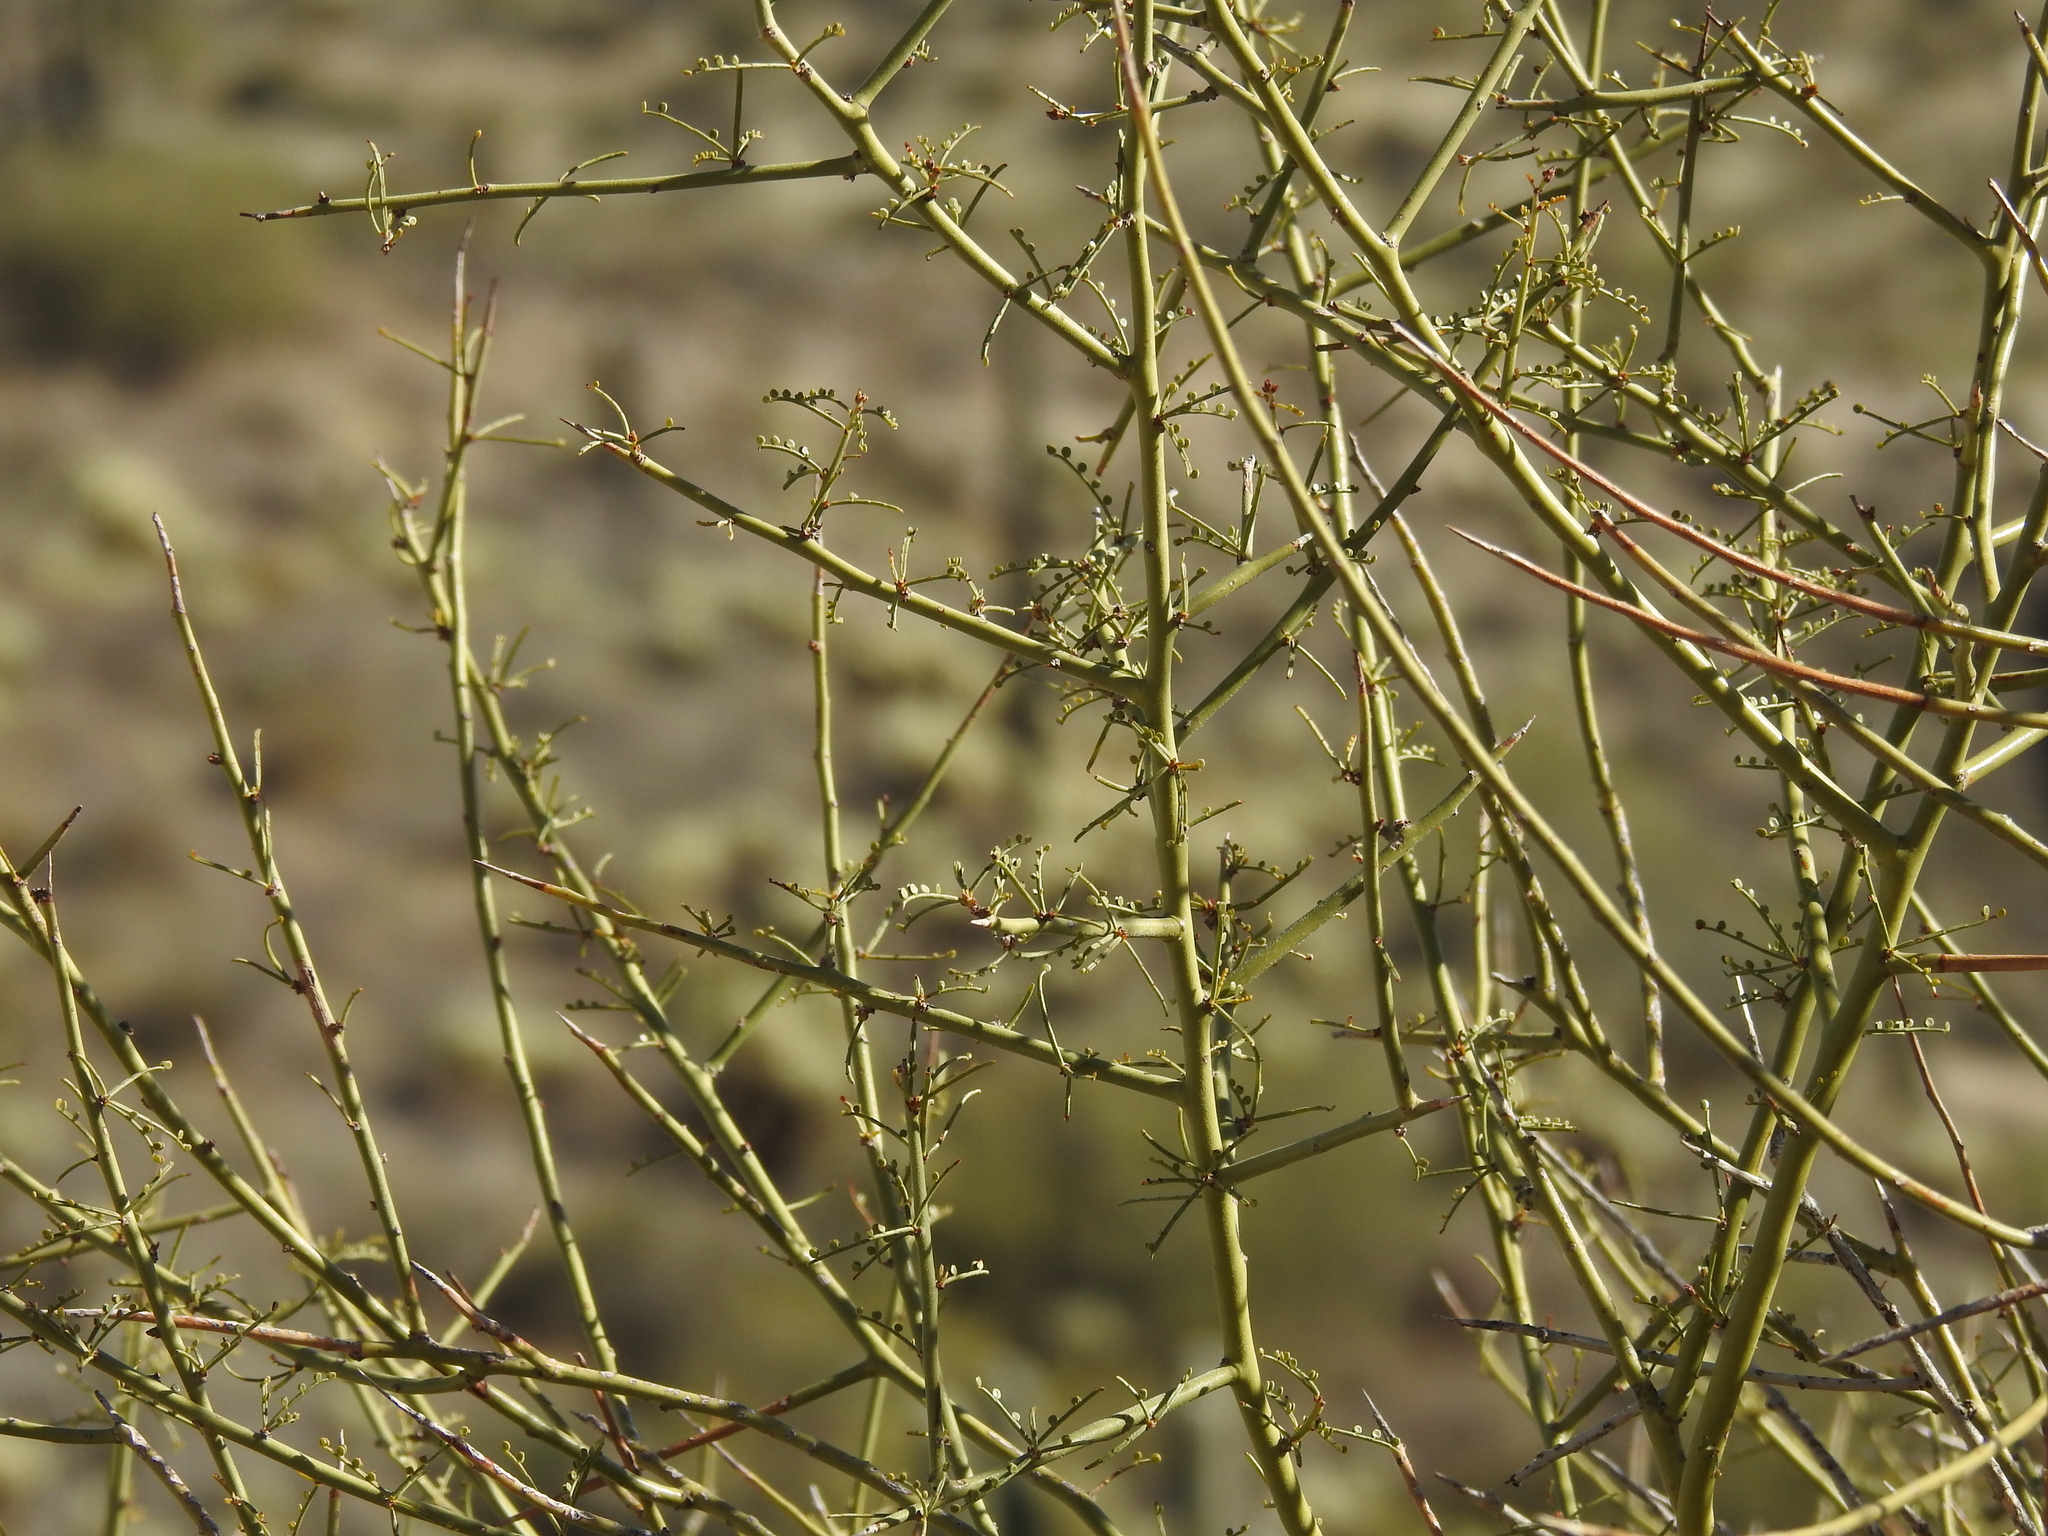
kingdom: Plantae
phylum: Tracheophyta
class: Magnoliopsida
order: Fabales
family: Fabaceae
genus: Parkinsonia
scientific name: Parkinsonia microphylla
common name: Yellow paloverde
